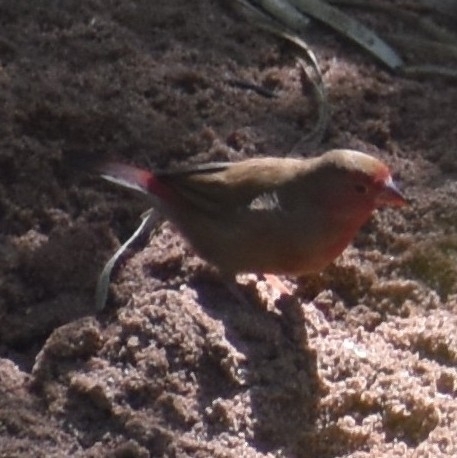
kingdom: Animalia
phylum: Chordata
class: Aves
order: Passeriformes
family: Estrildidae
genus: Lagonosticta
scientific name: Lagonosticta senegala
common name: Red-billed firefinch
